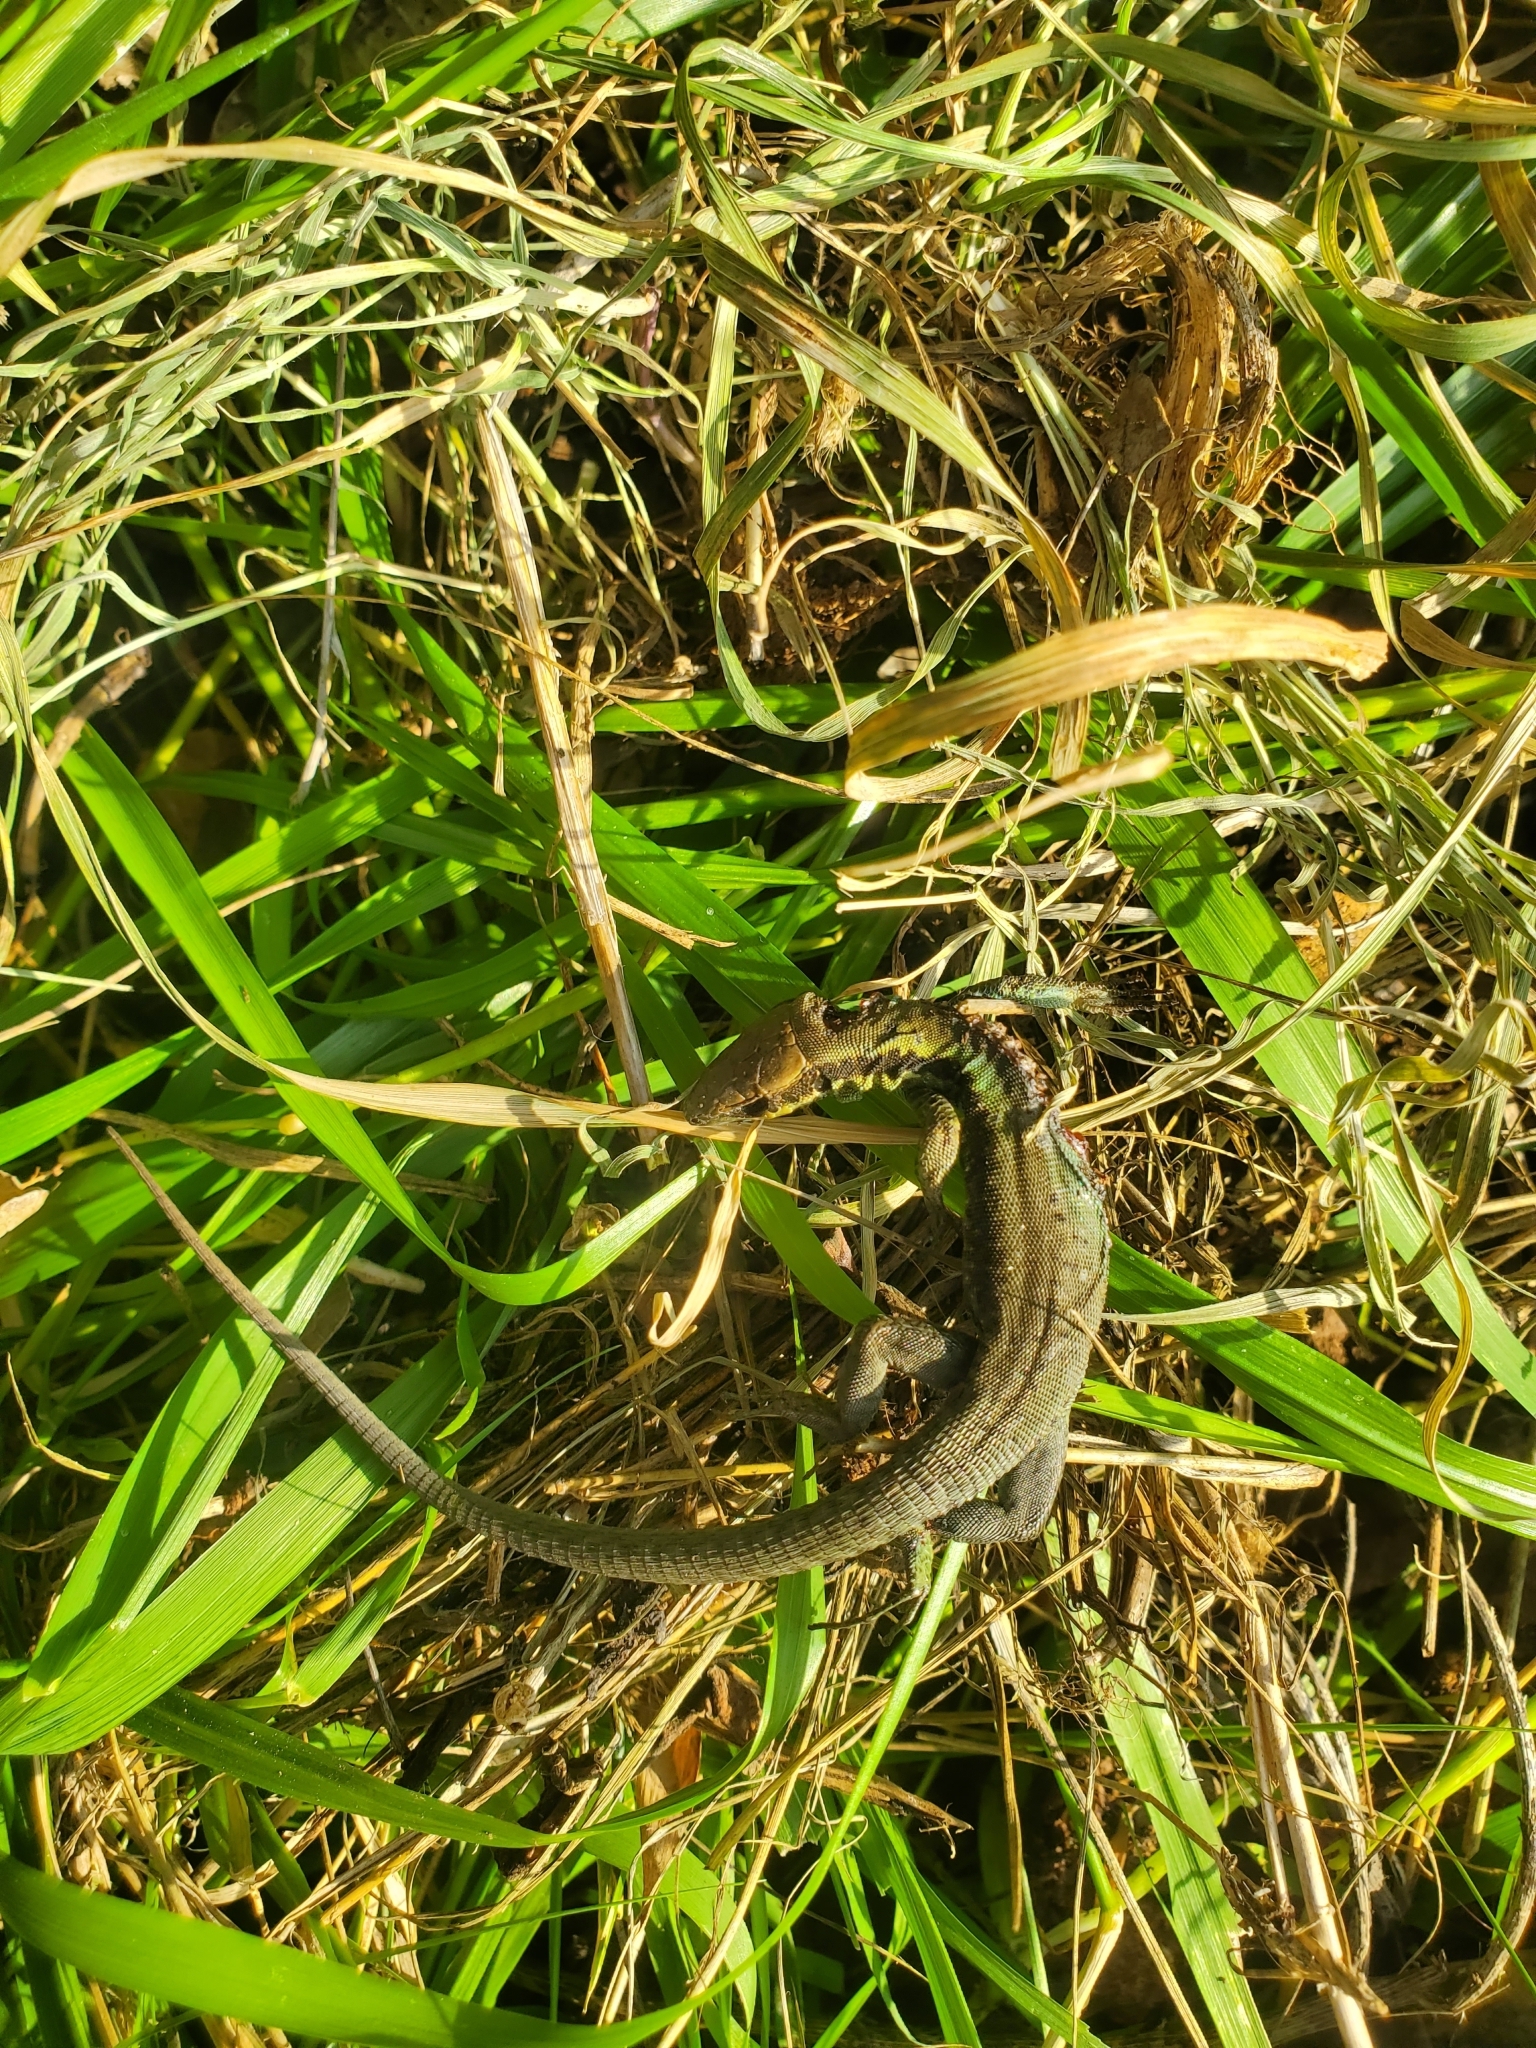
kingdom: Animalia
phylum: Chordata
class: Squamata
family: Lacertidae
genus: Phoenicolacerta
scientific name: Phoenicolacerta laevis
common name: Lebanon lizard
